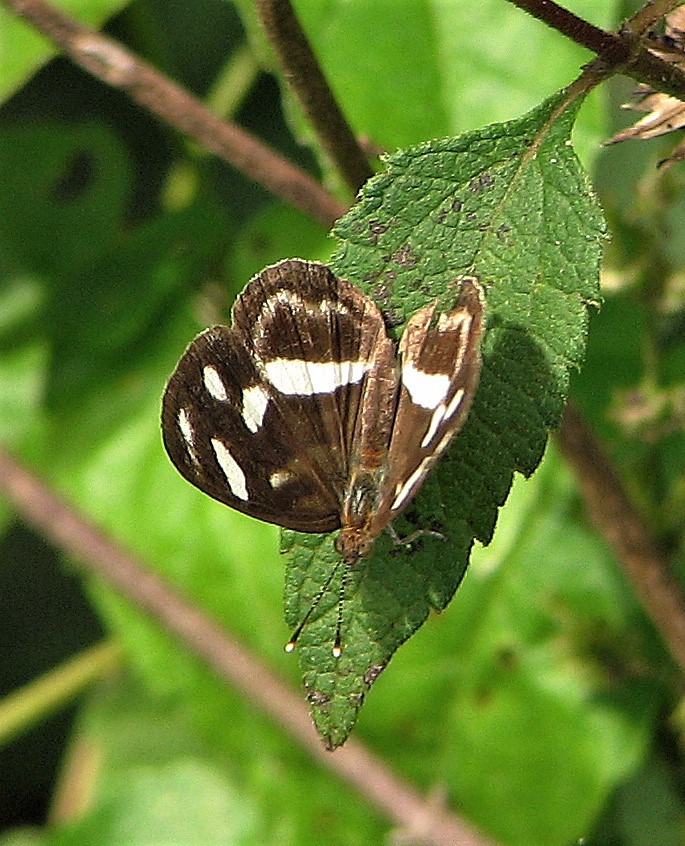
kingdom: Animalia
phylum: Arthropoda
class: Insecta
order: Lepidoptera
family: Nymphalidae
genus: Dynamine
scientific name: Dynamine artemisia
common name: Small-eyed sailor
